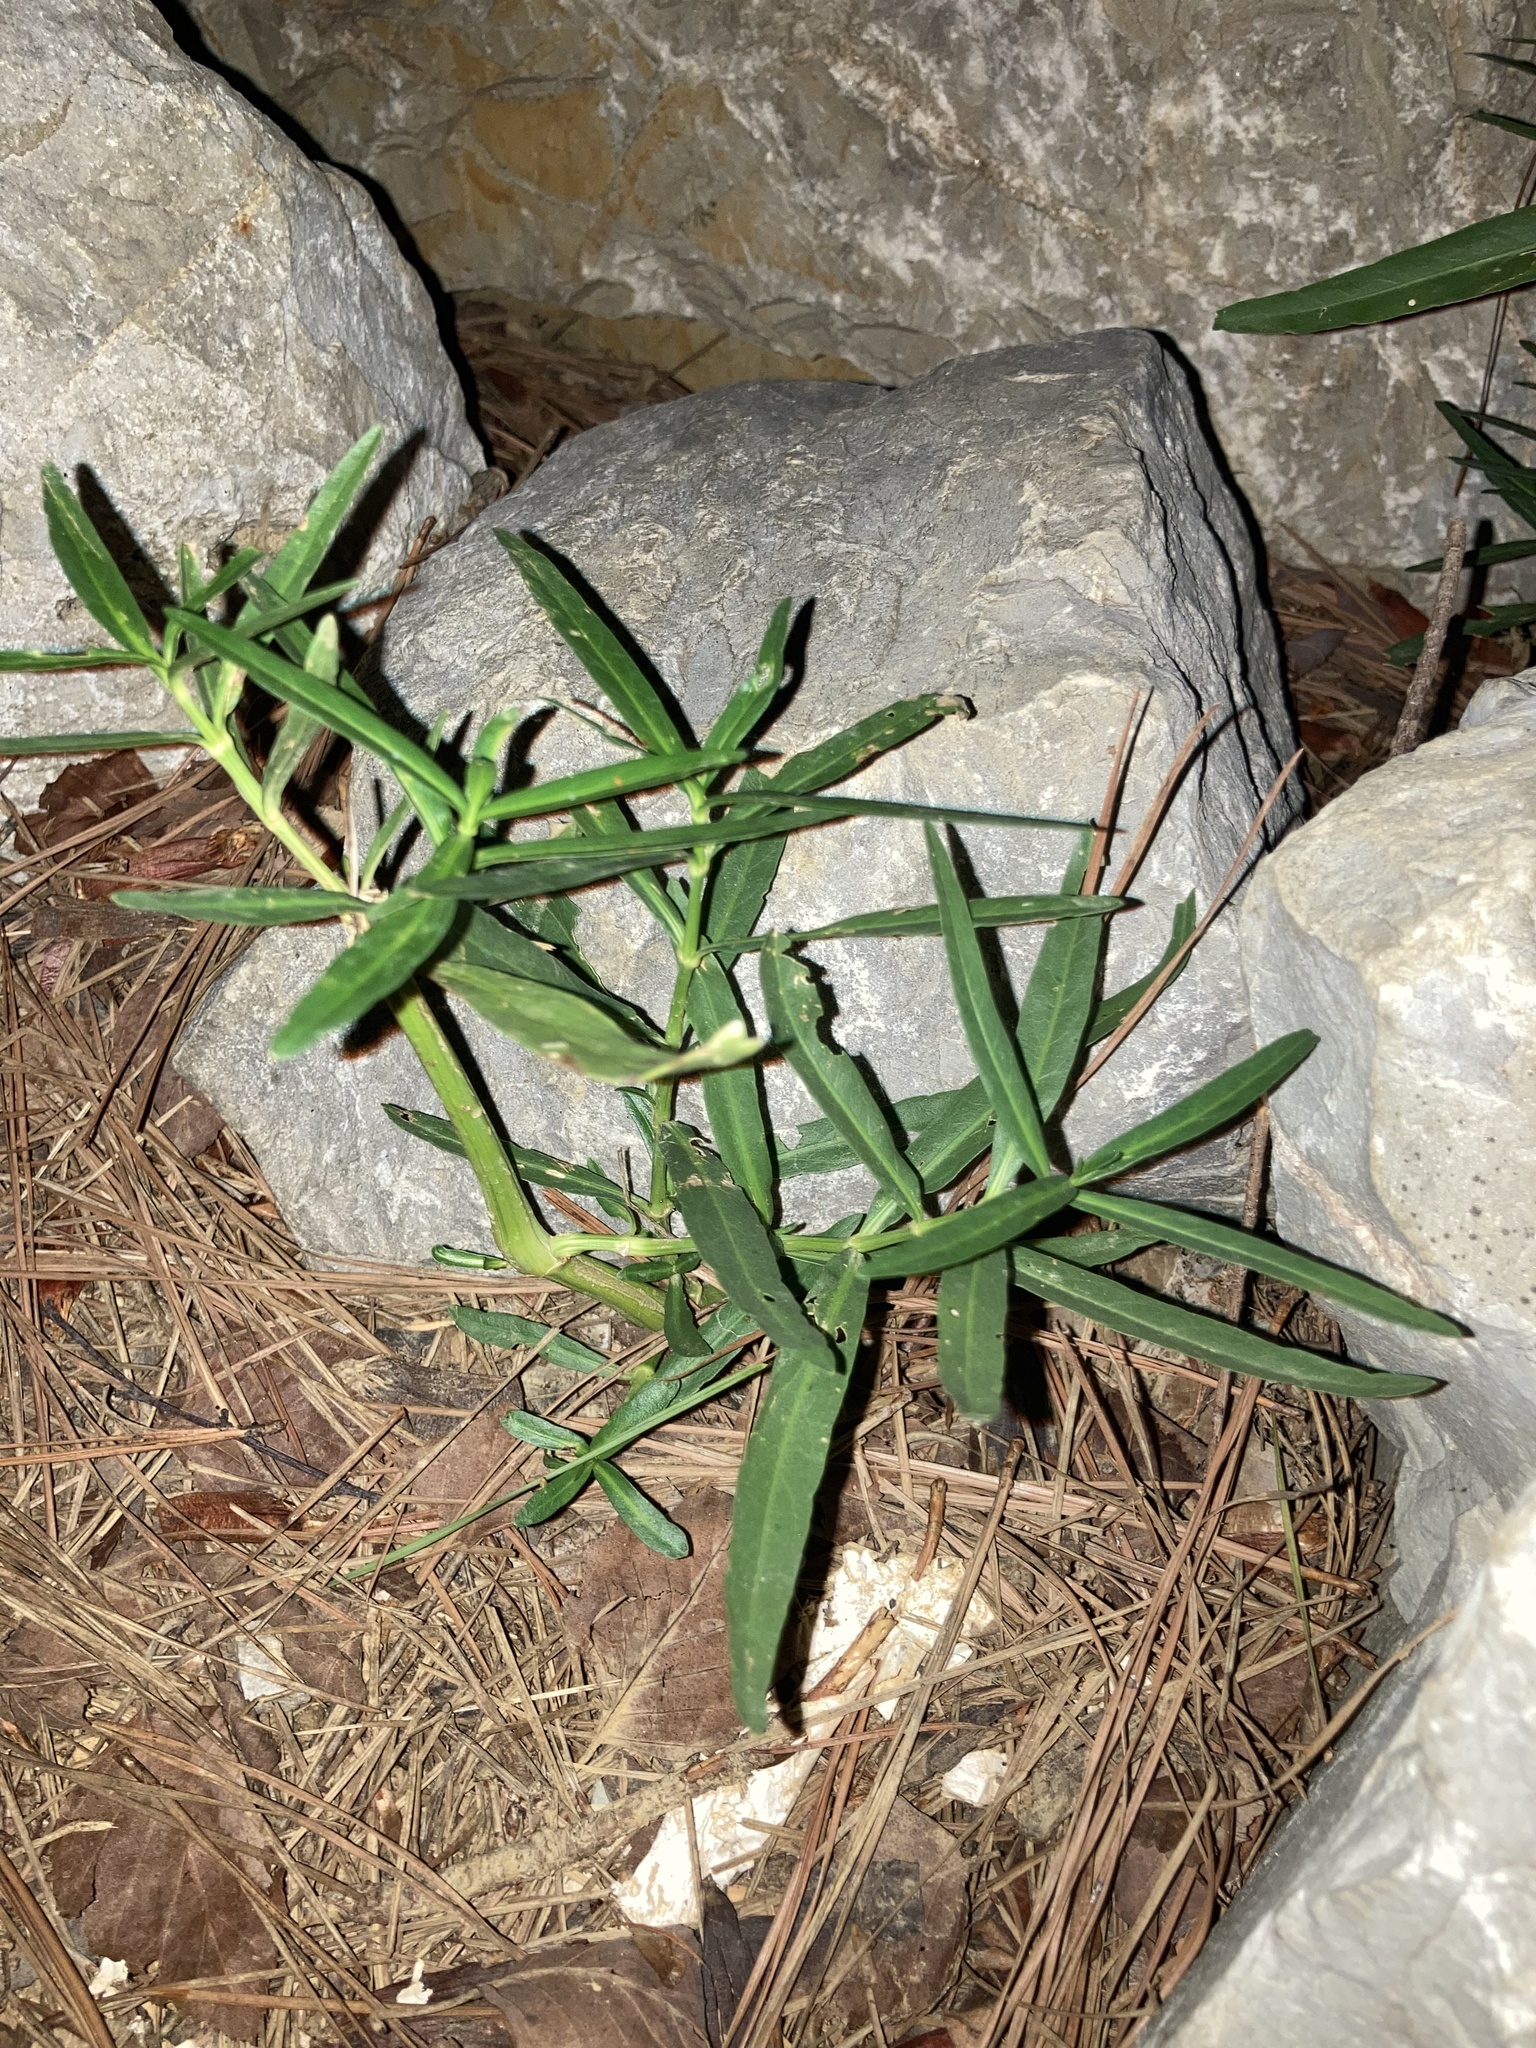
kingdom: Plantae
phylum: Tracheophyta
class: Magnoliopsida
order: Lamiales
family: Acanthaceae
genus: Dianthera
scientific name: Dianthera americana
